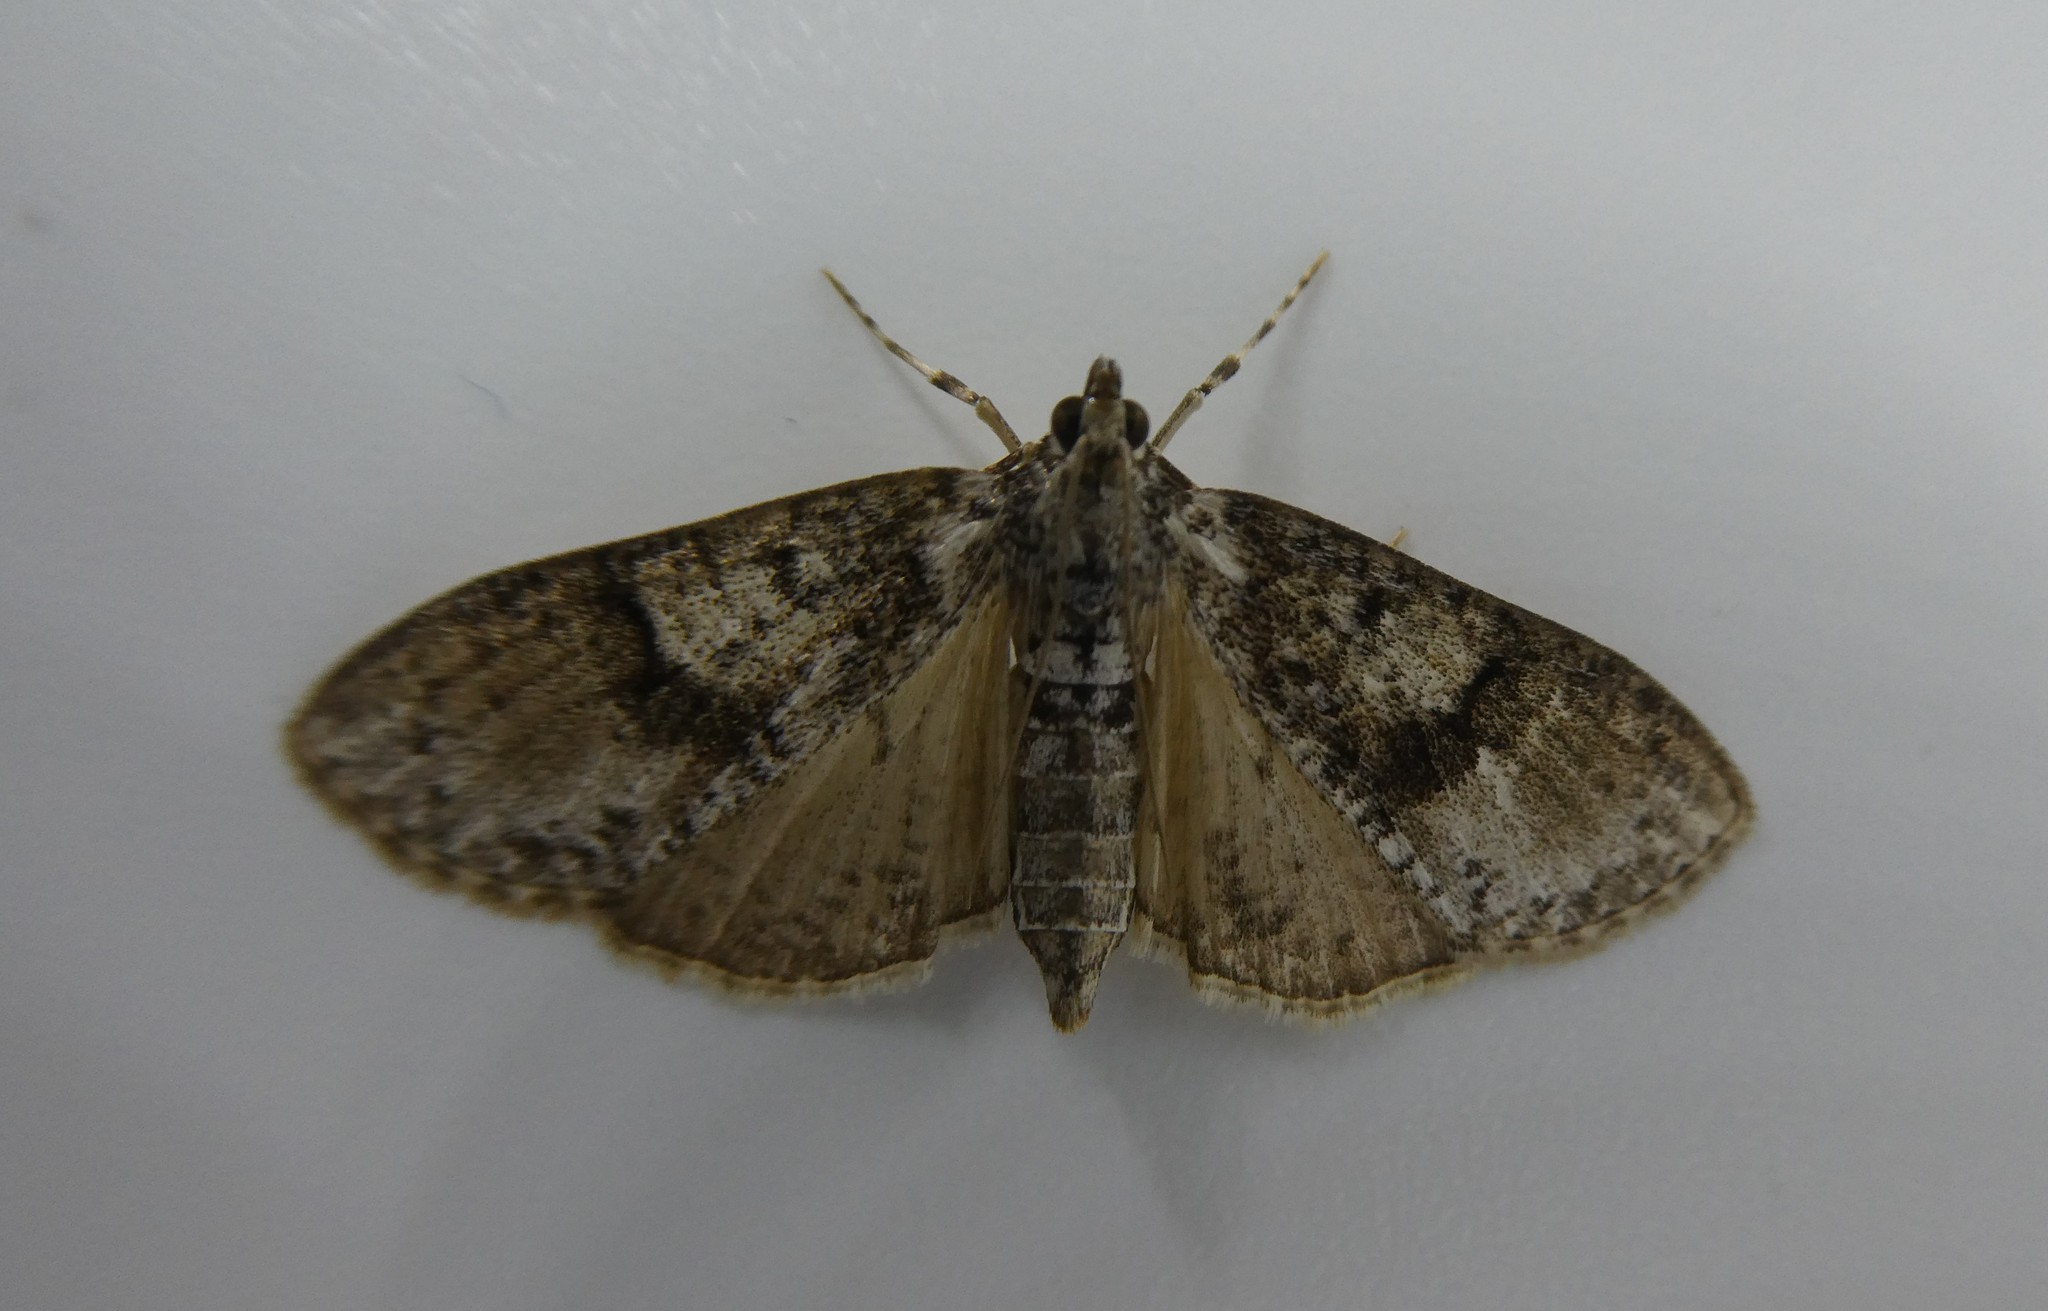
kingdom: Animalia
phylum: Arthropoda
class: Insecta
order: Lepidoptera
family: Crambidae
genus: Palpita
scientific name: Palpita magniferalis
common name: Splendid palpita moth
